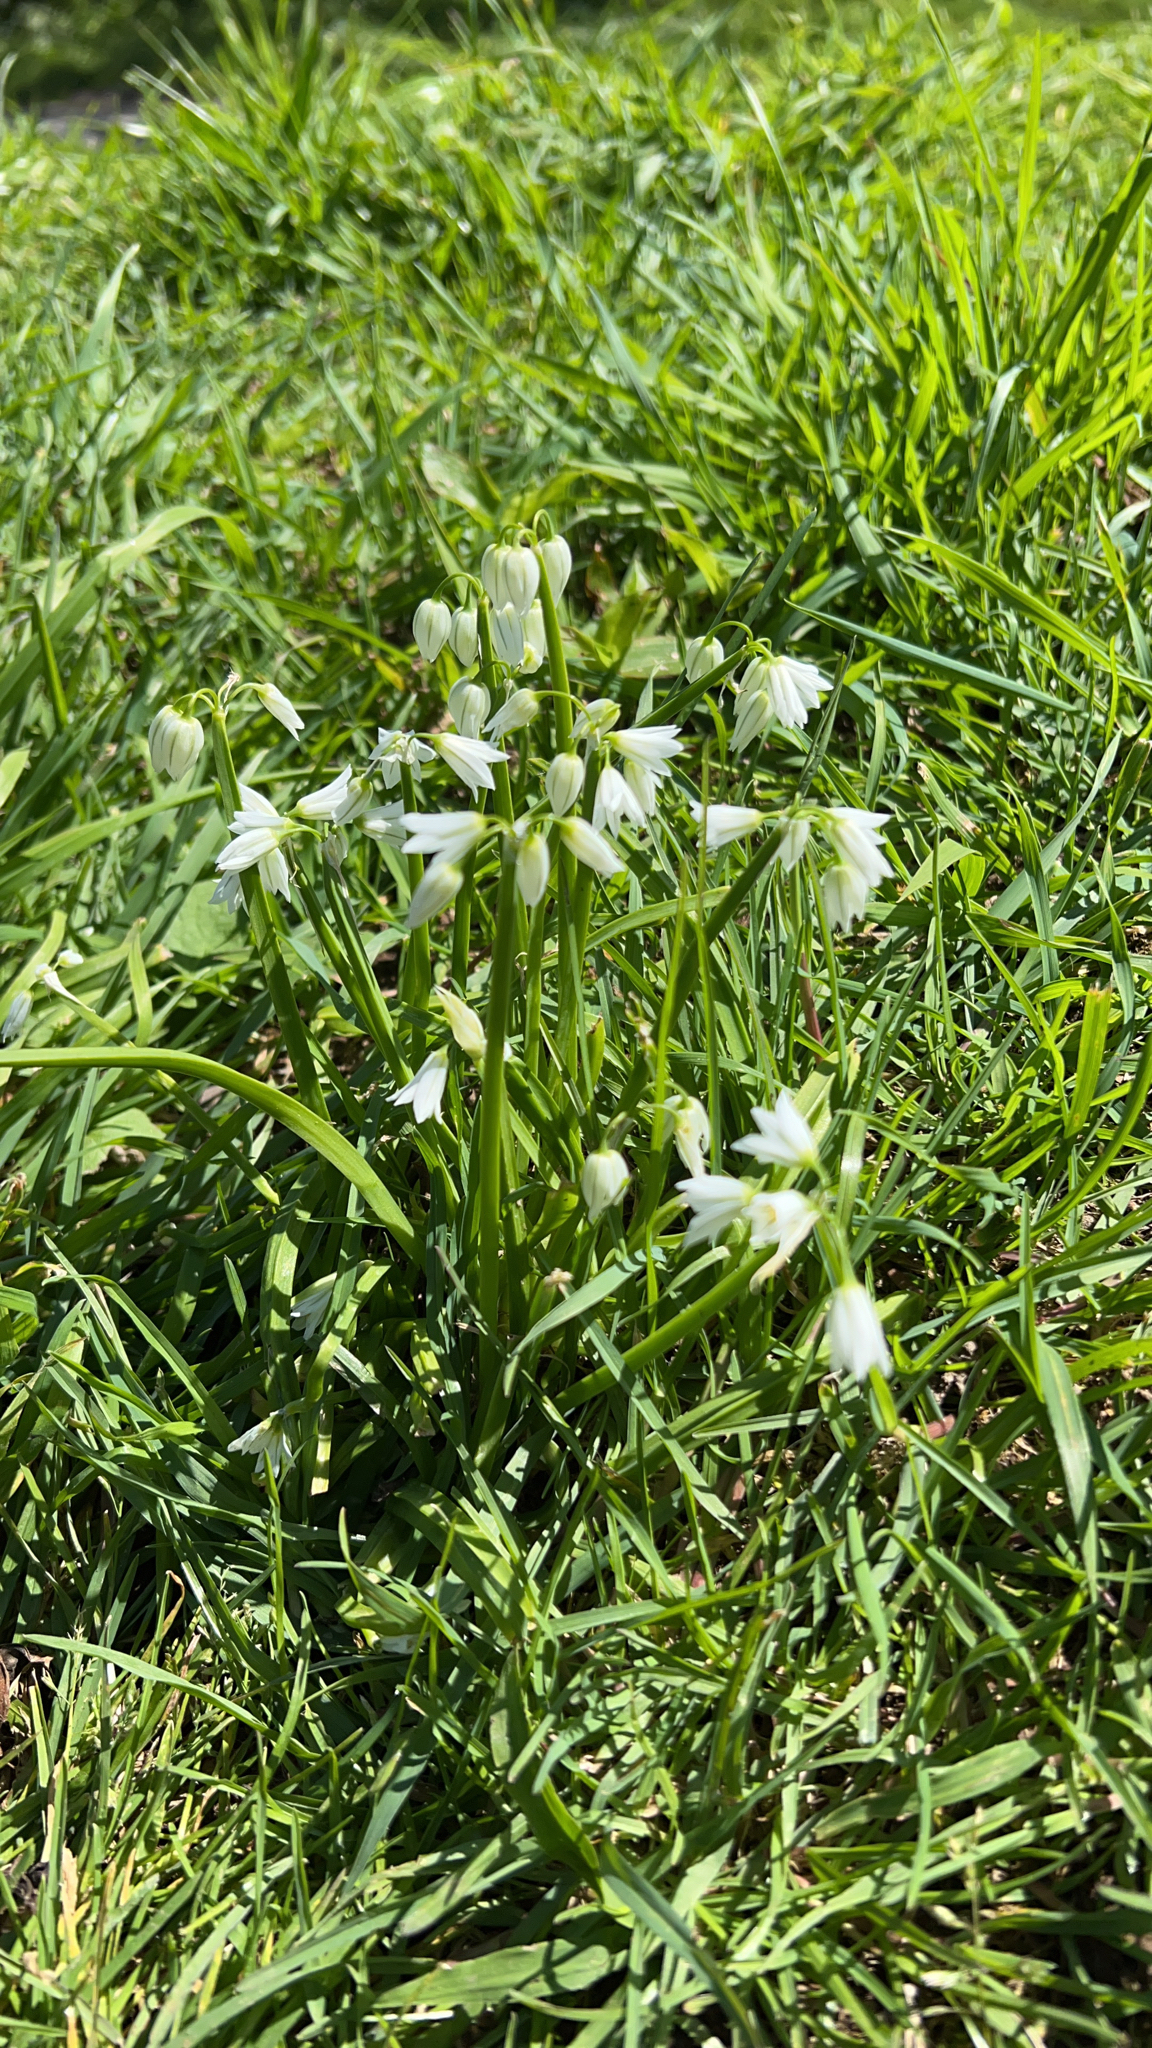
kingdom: Plantae
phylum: Tracheophyta
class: Liliopsida
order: Asparagales
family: Amaryllidaceae
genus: Allium
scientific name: Allium triquetrum
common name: Three-cornered garlic
